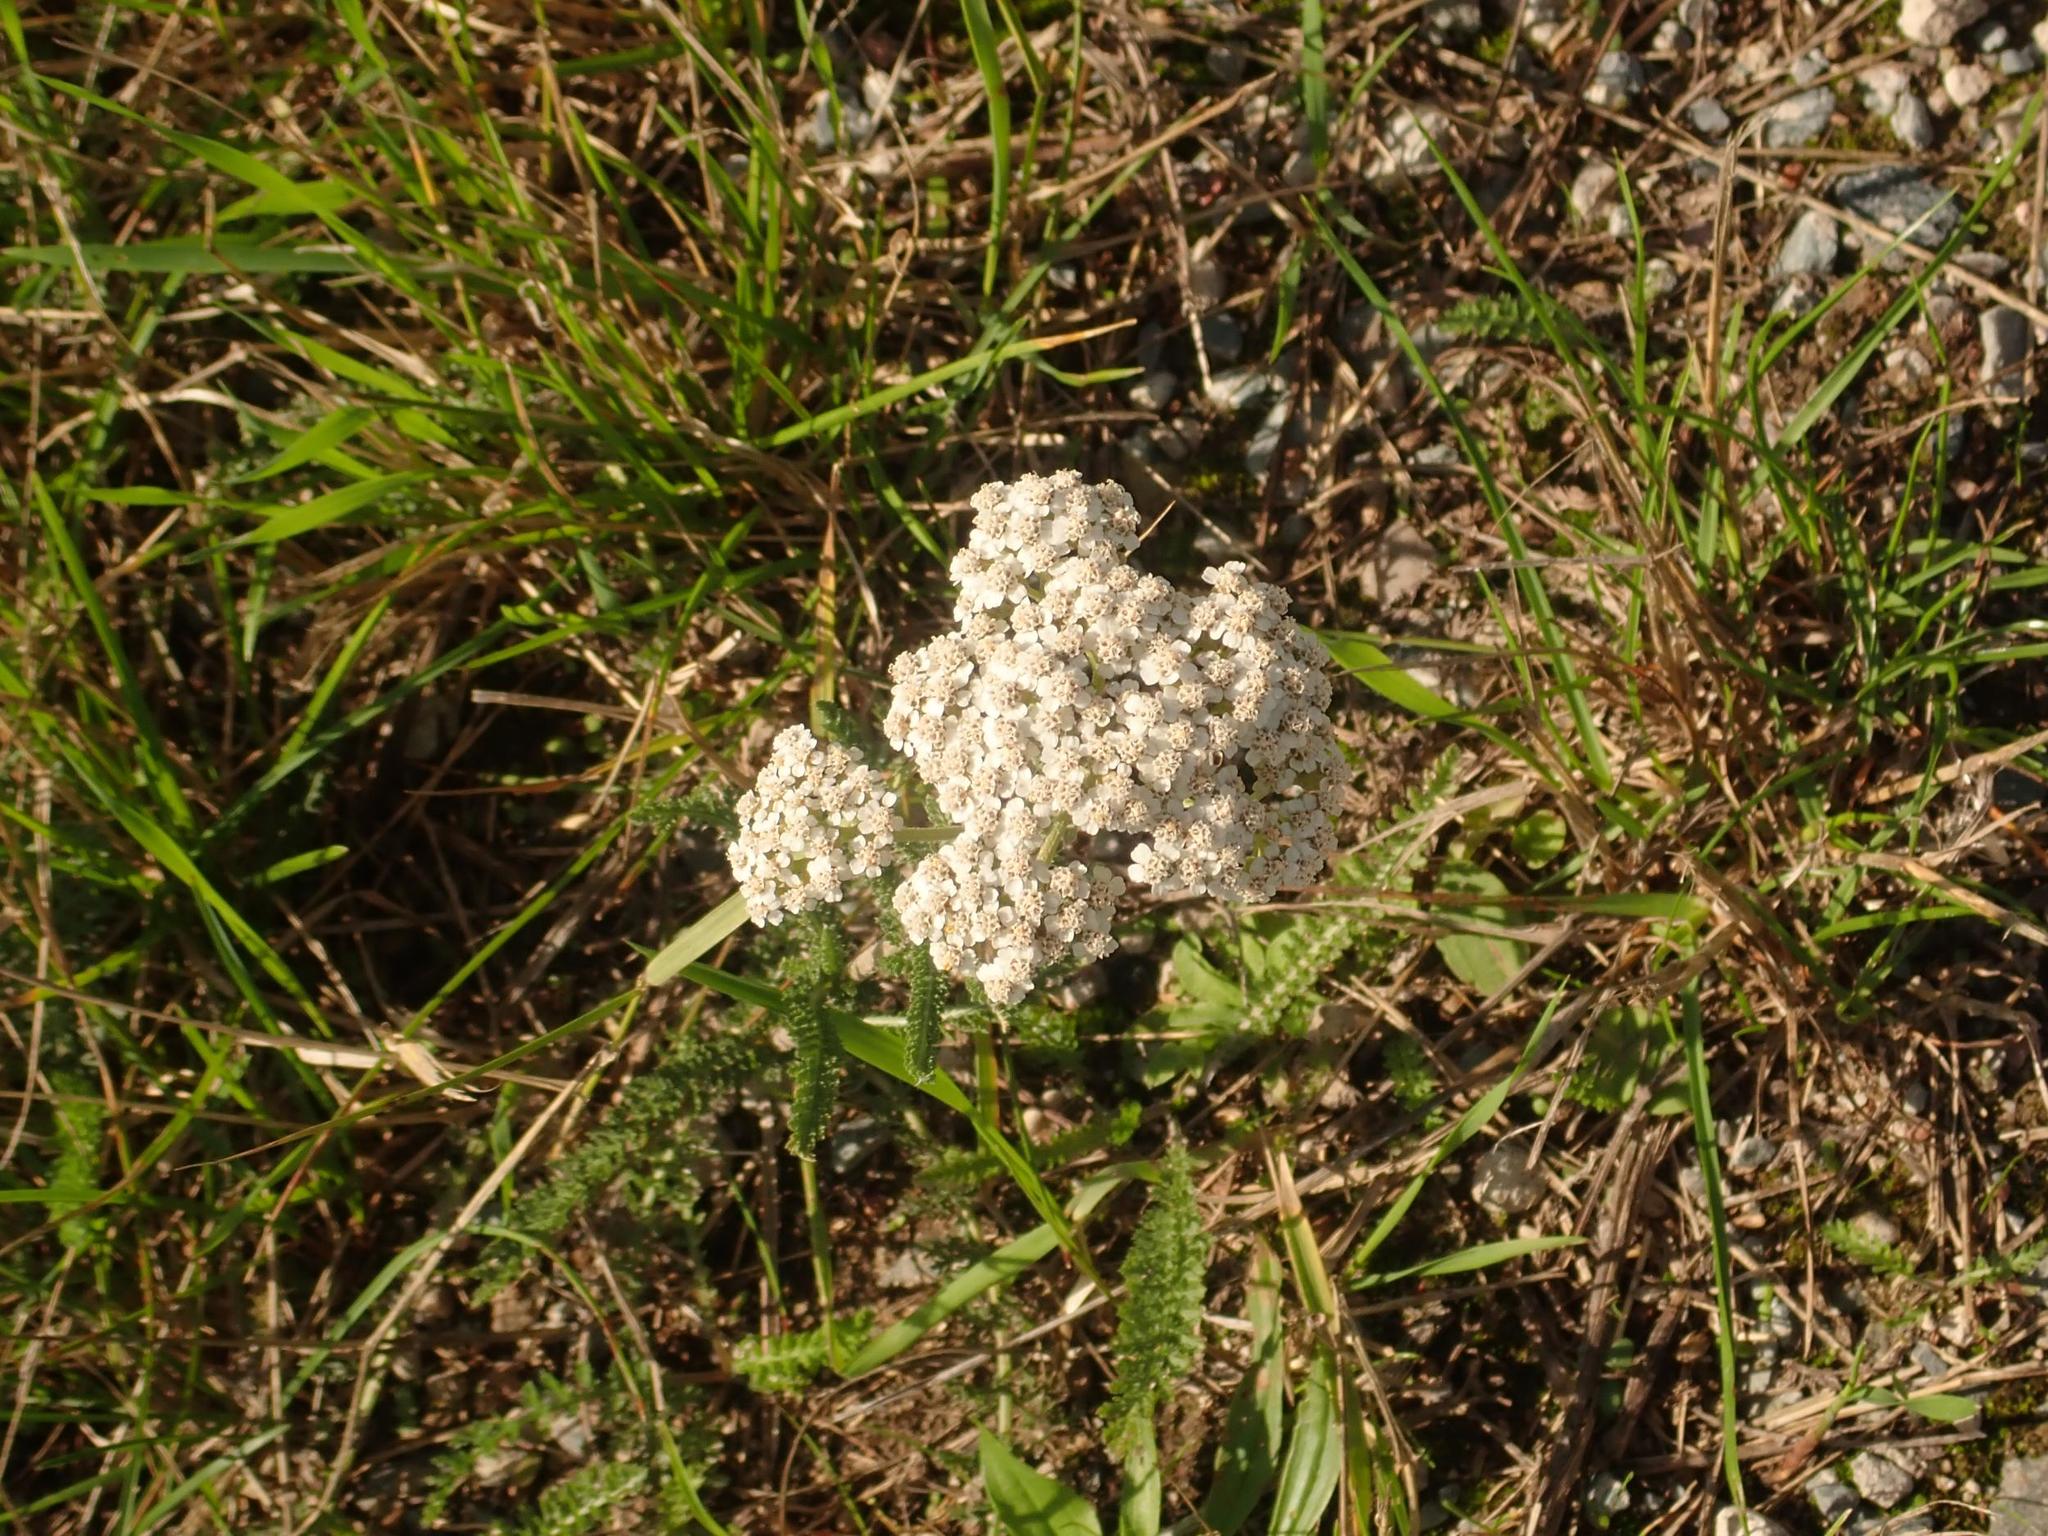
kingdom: Plantae
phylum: Tracheophyta
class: Magnoliopsida
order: Asterales
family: Asteraceae
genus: Achillea
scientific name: Achillea millefolium
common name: Yarrow
